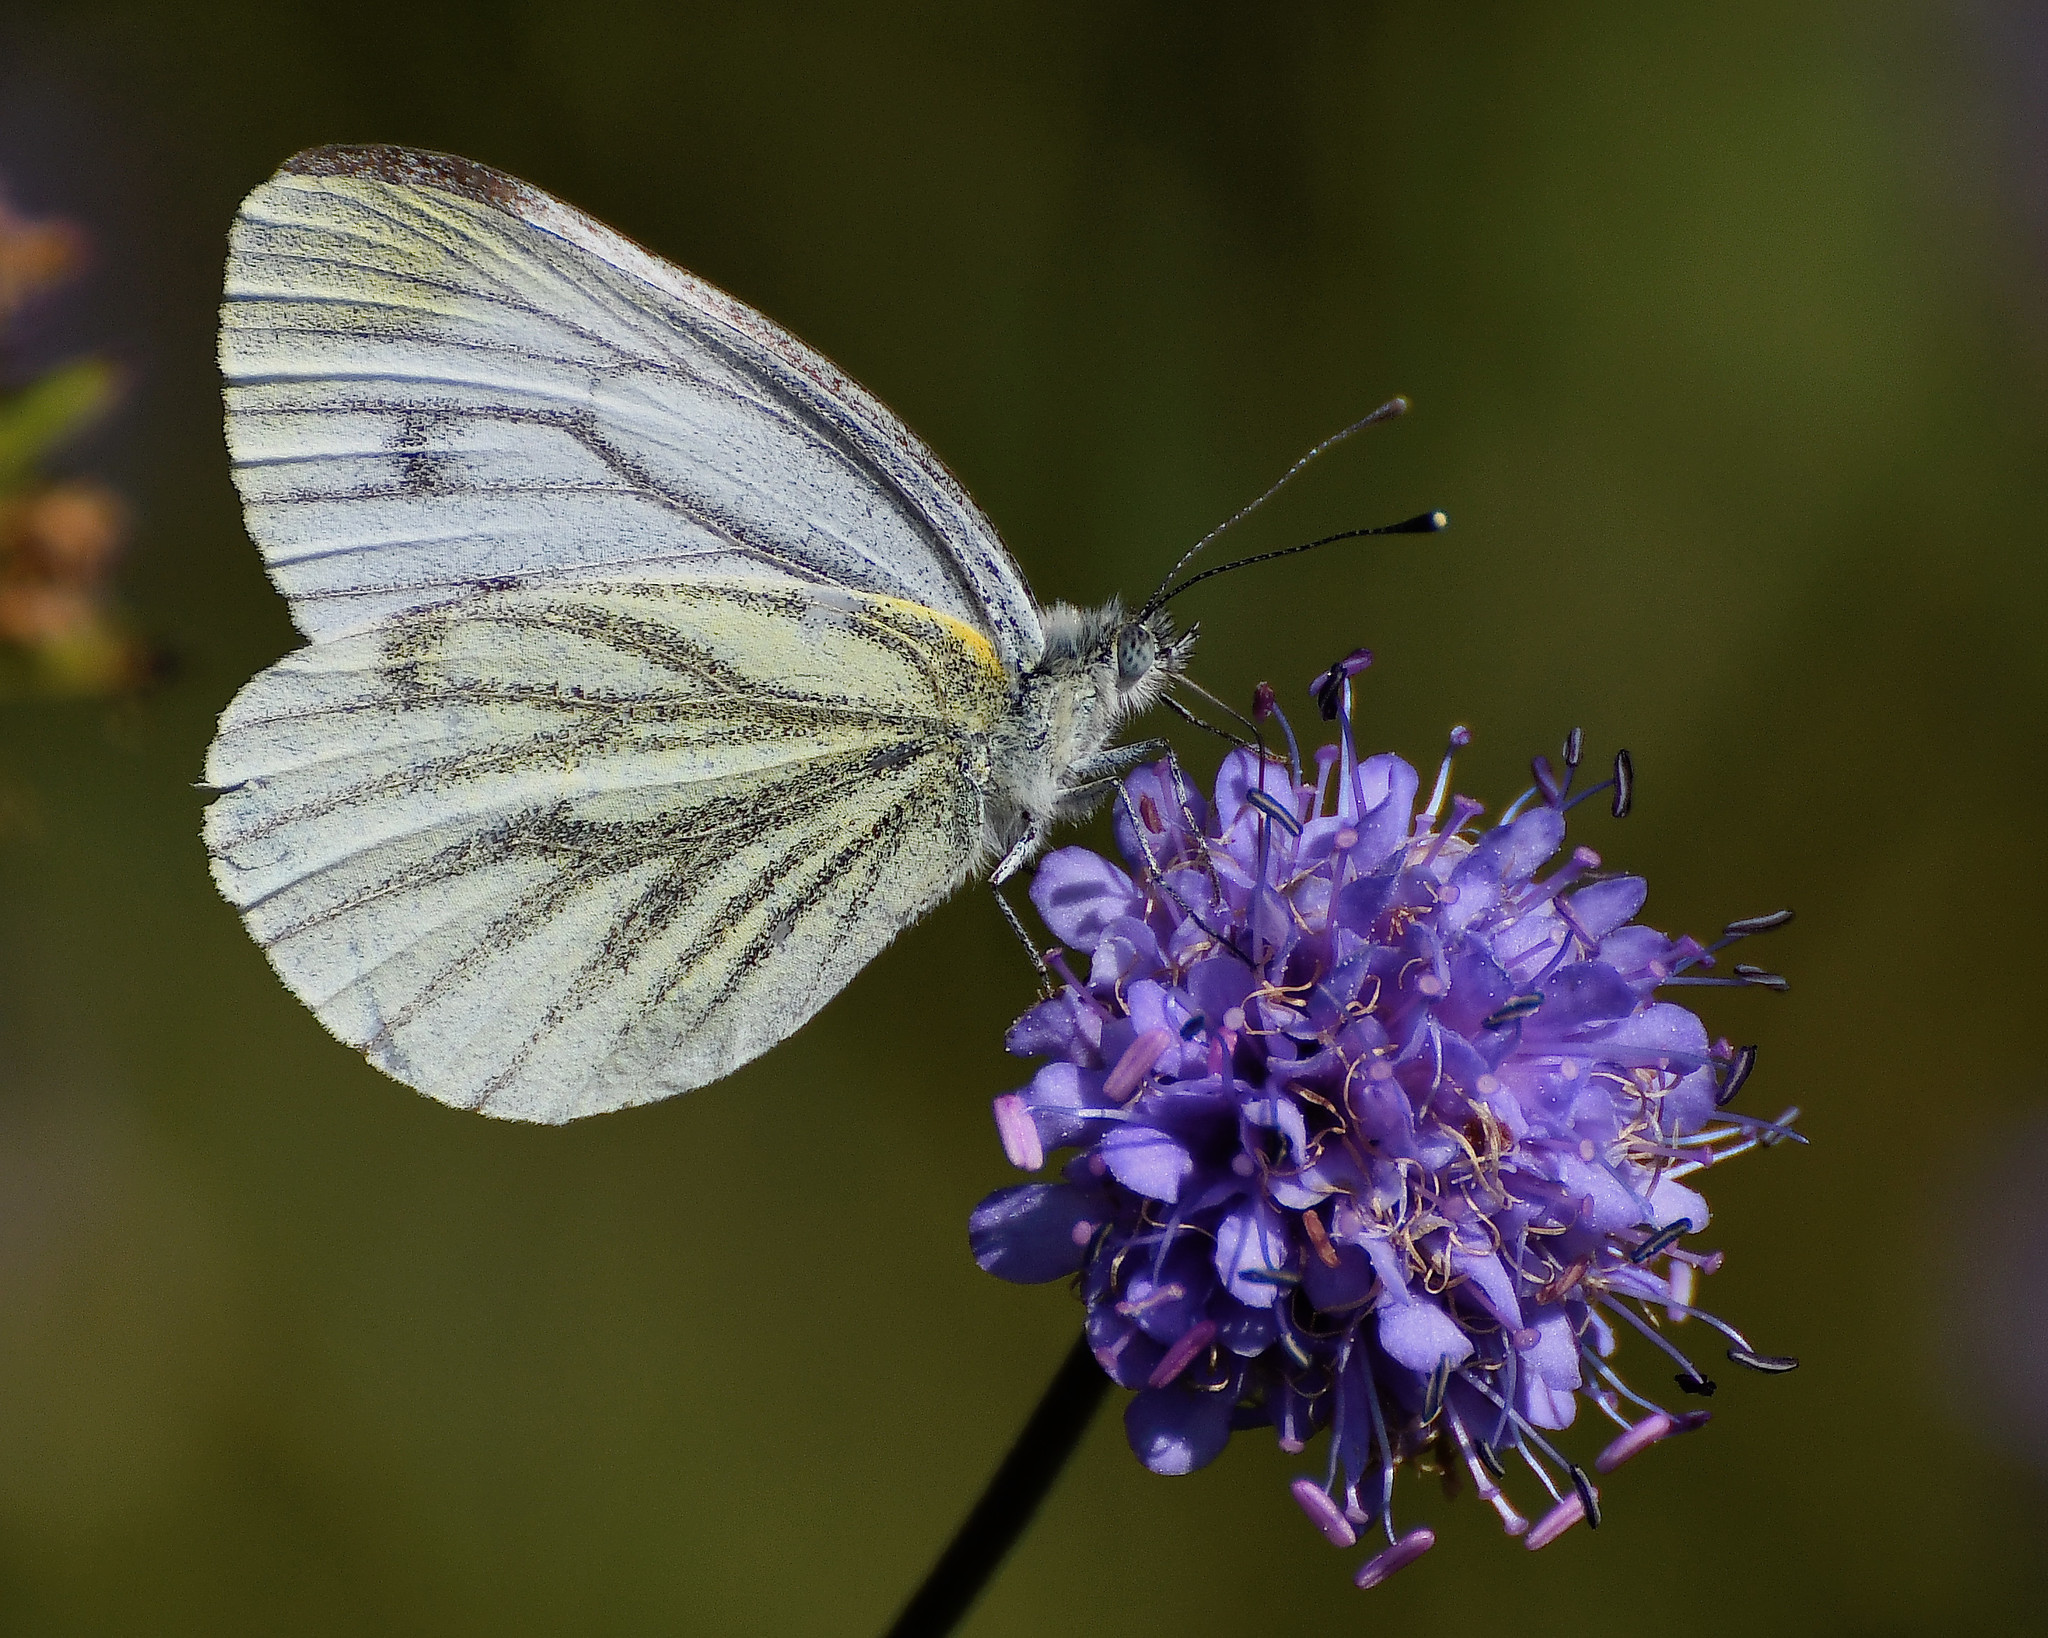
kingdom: Animalia
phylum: Arthropoda
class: Insecta
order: Lepidoptera
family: Pieridae
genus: Pieris
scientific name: Pieris napi
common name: Green-veined white
